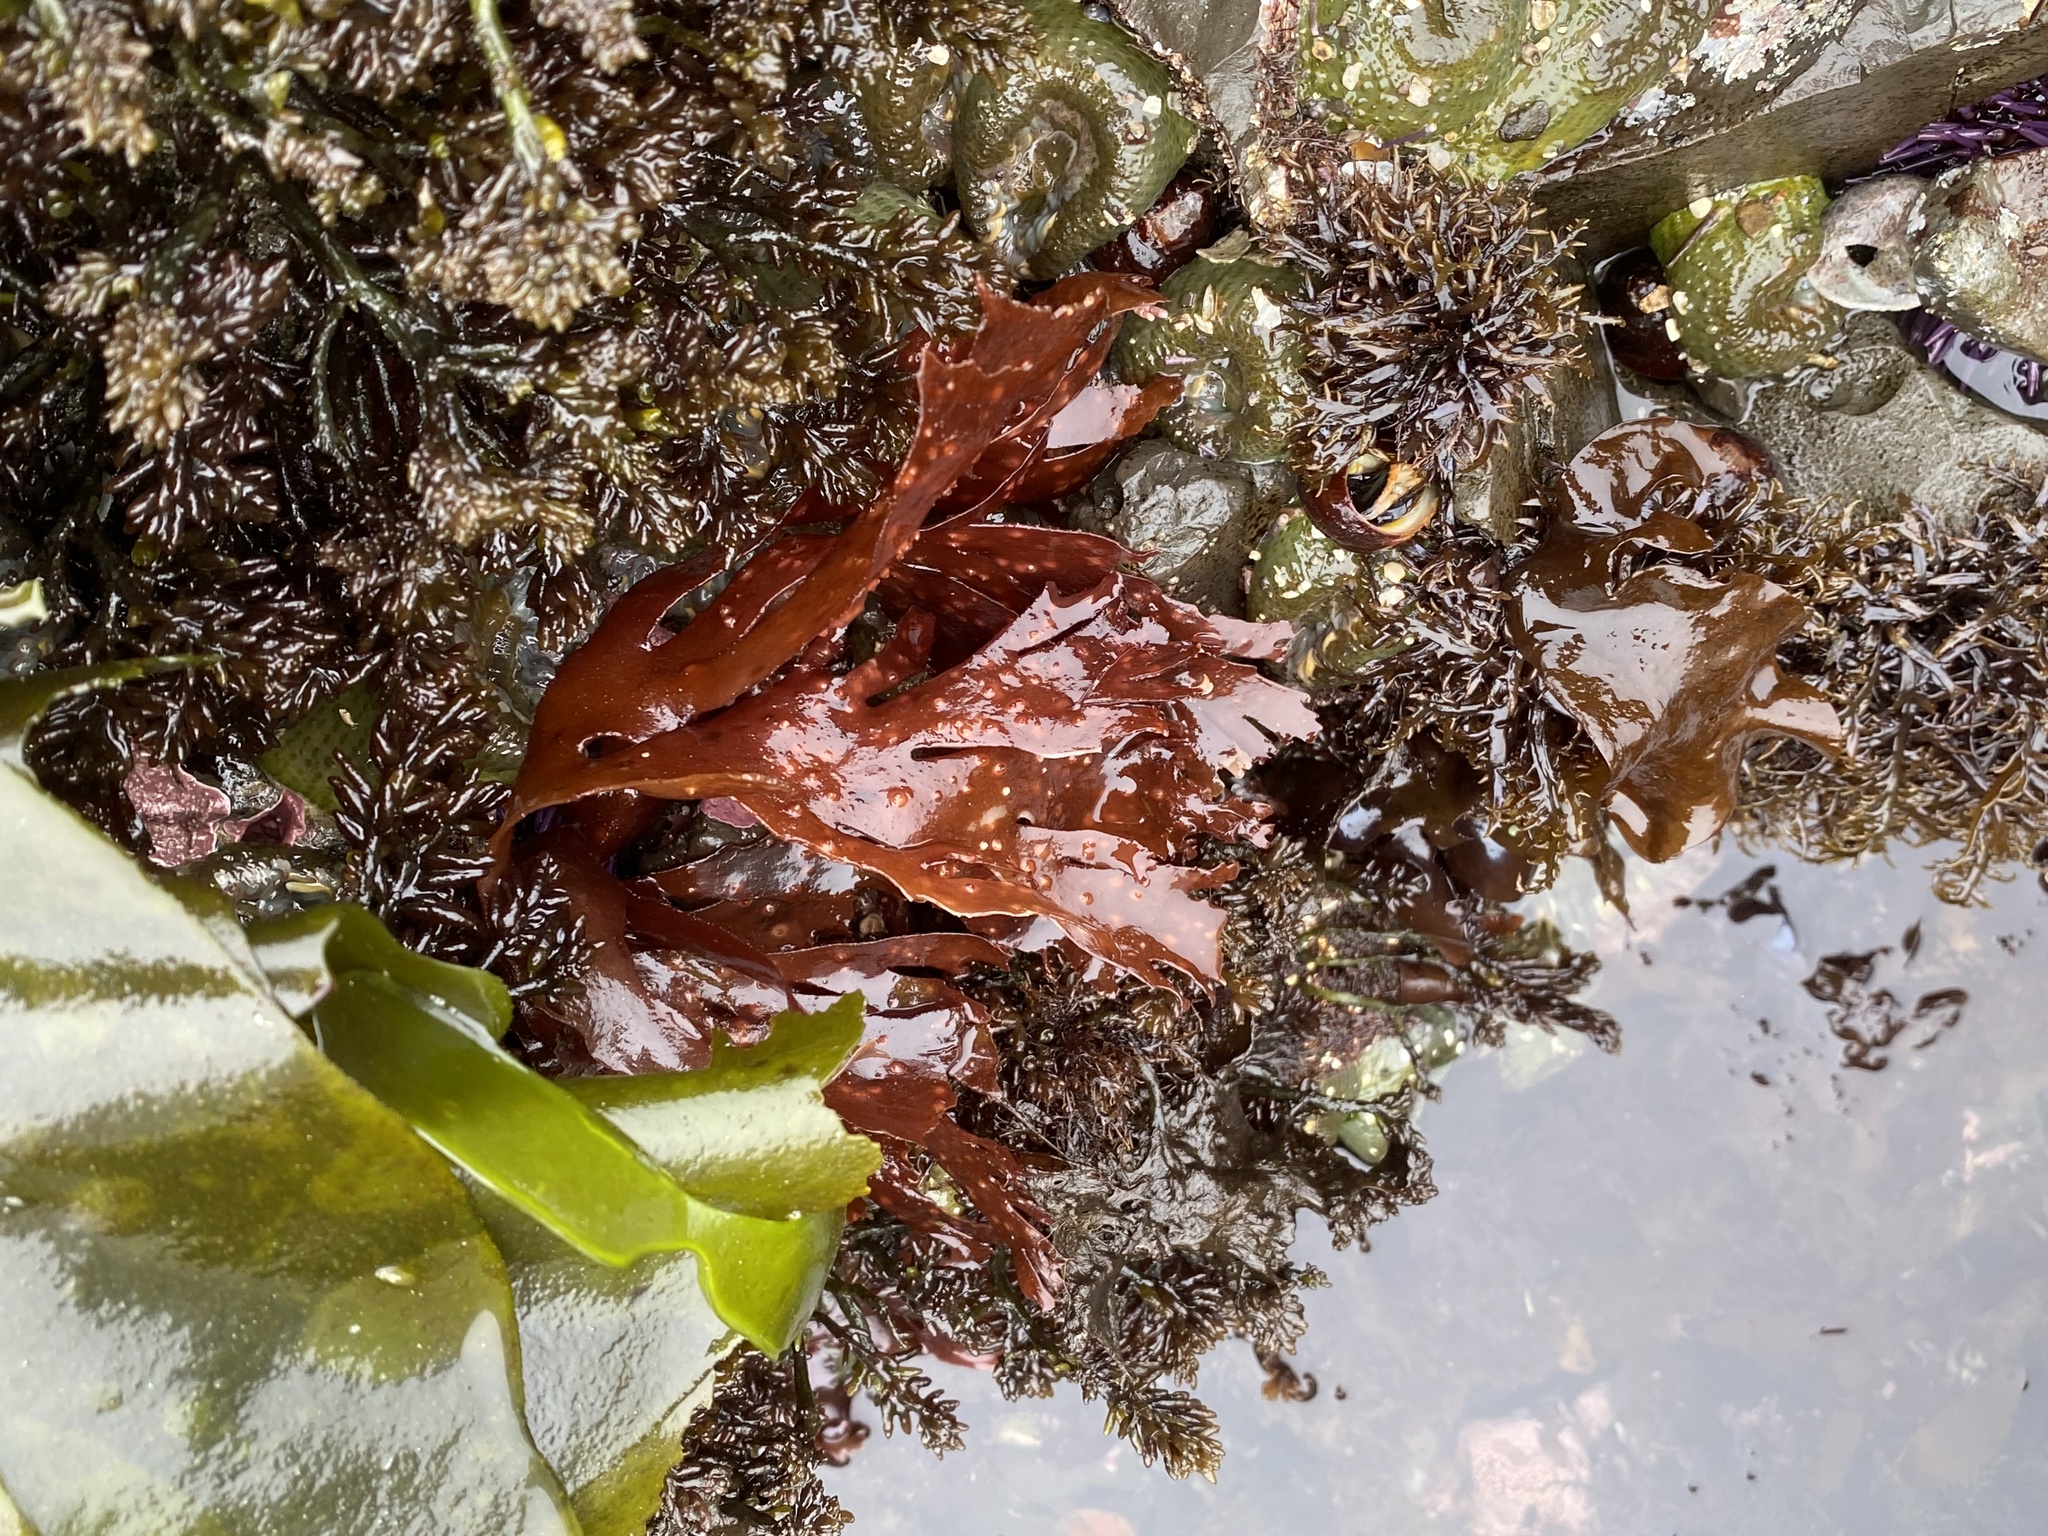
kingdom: Plantae
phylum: Rhodophyta
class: Florideophyceae
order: Ceramiales
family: Delesseriaceae
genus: Cryptopleura
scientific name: Cryptopleura ruprechtiana
